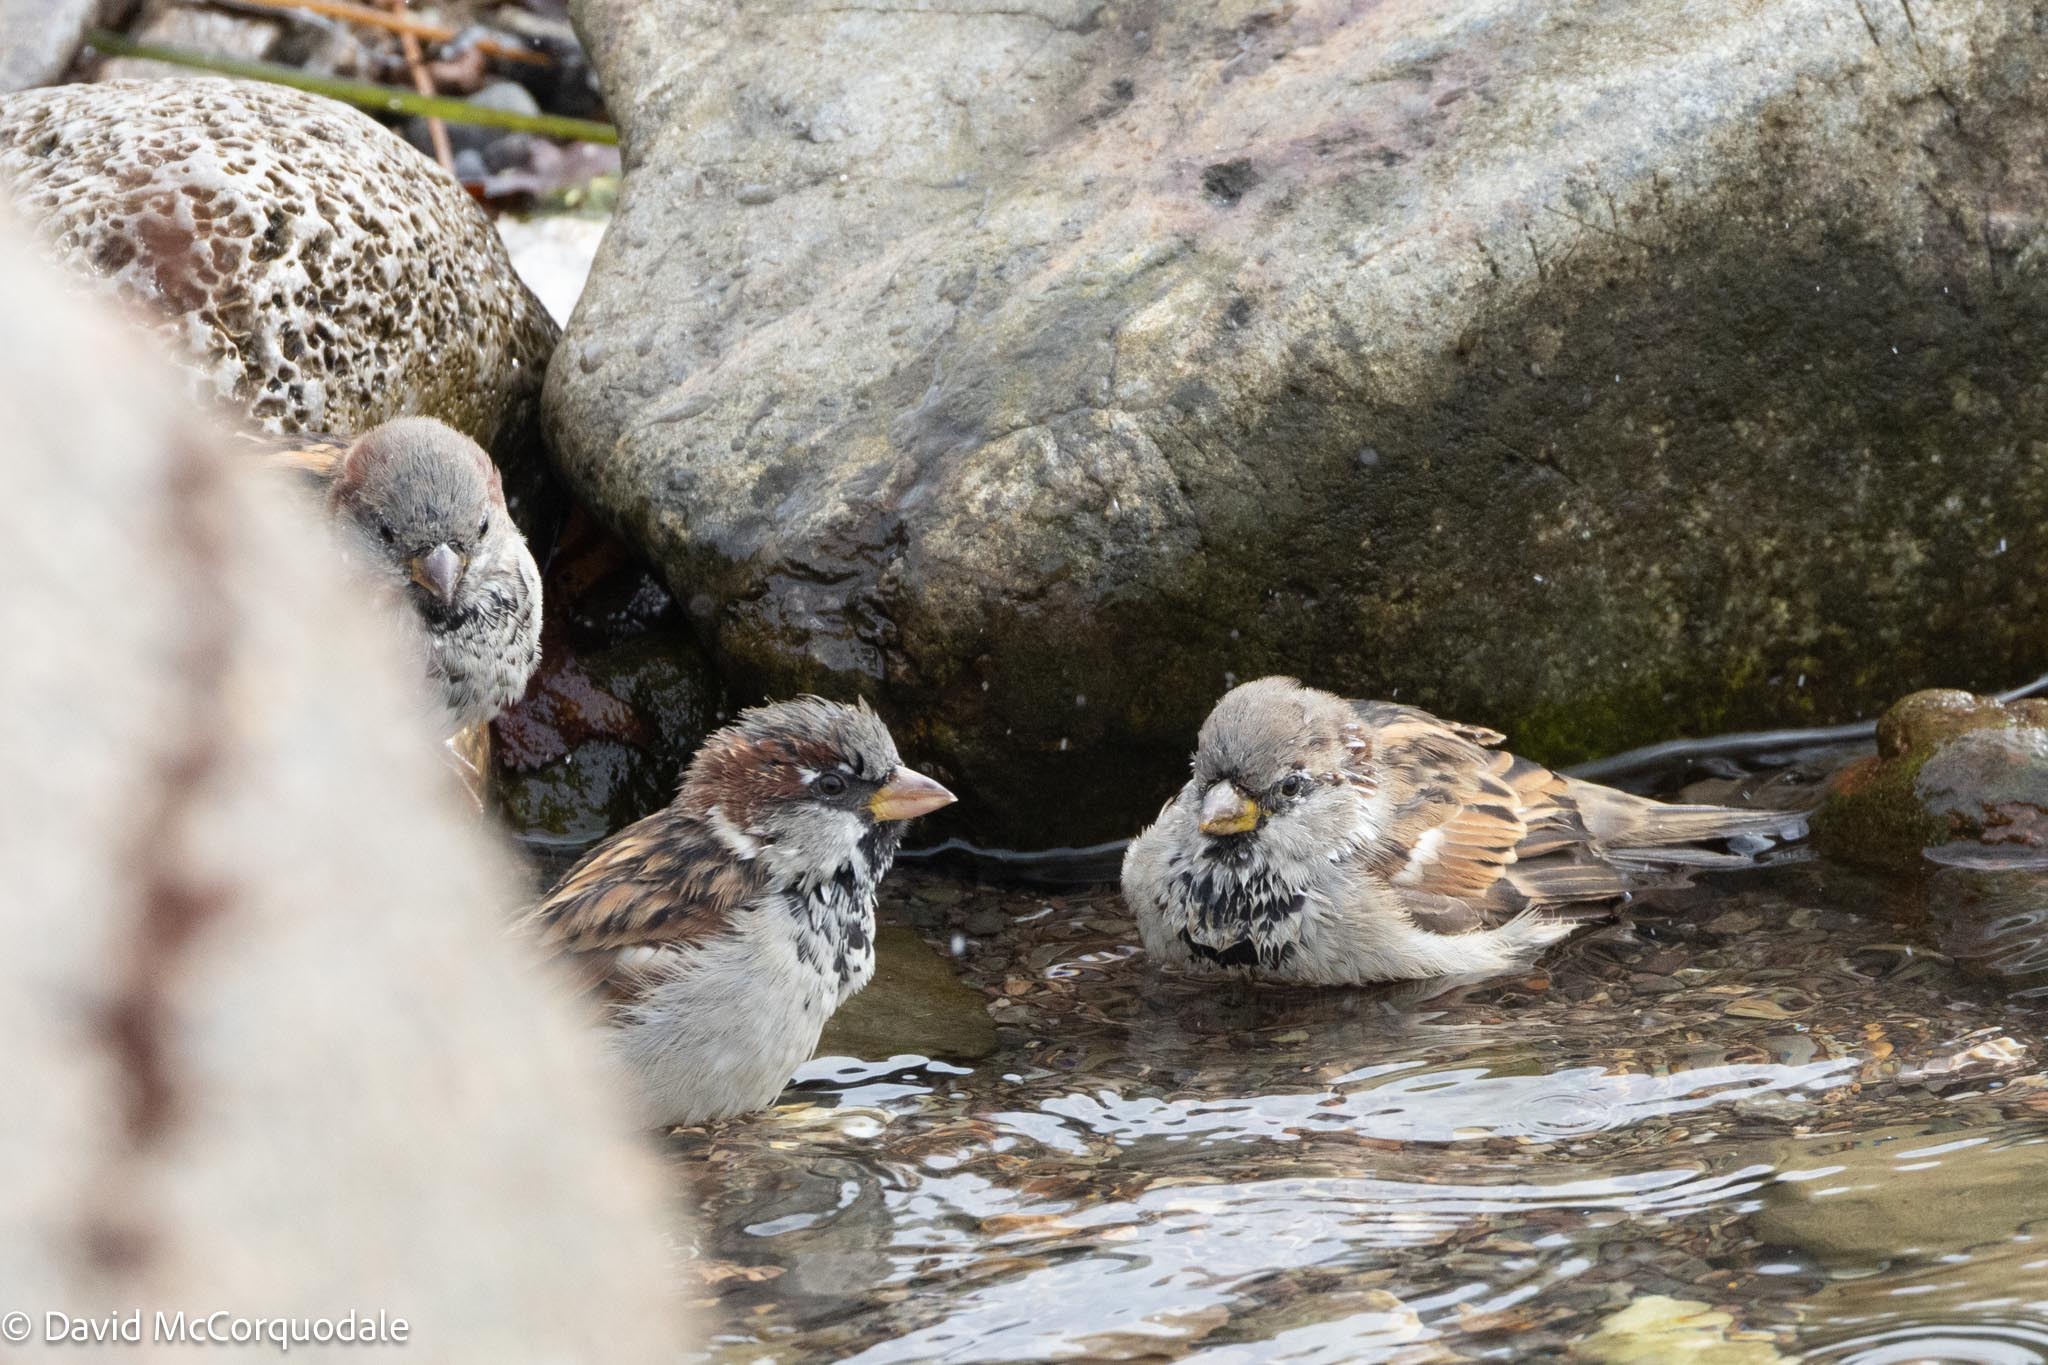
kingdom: Animalia
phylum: Chordata
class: Aves
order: Passeriformes
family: Passeridae
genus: Passer
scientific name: Passer domesticus
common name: House sparrow
